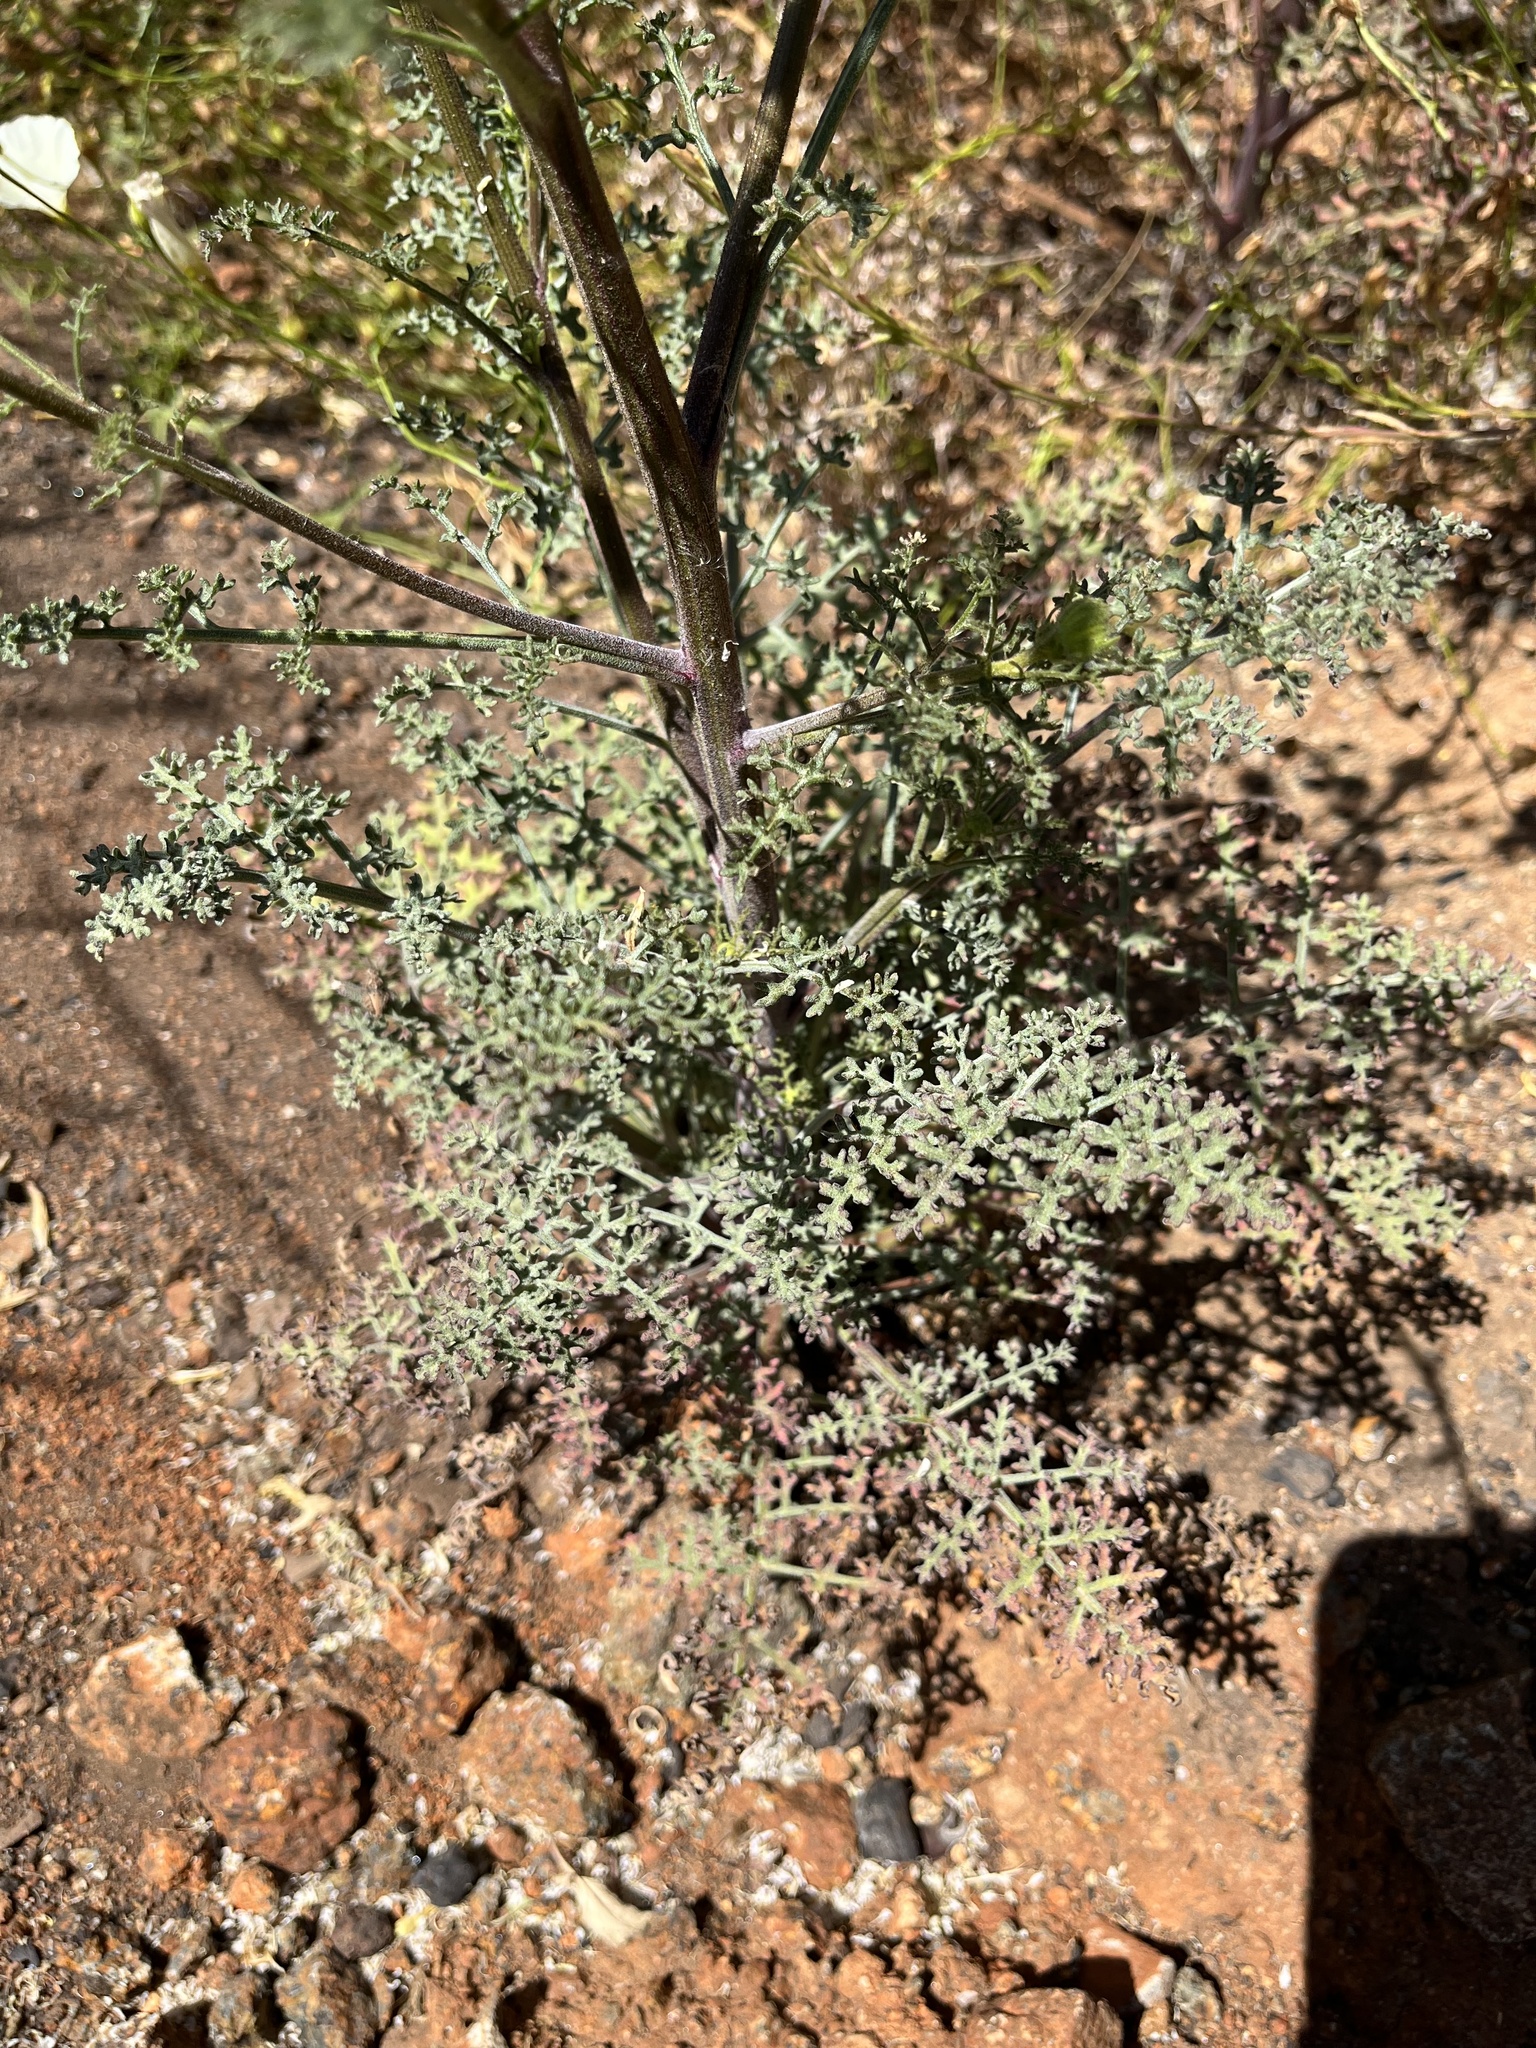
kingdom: Plantae
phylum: Tracheophyta
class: Magnoliopsida
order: Asterales
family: Asteraceae
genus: Chaenactis
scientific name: Chaenactis artemisiifolia
